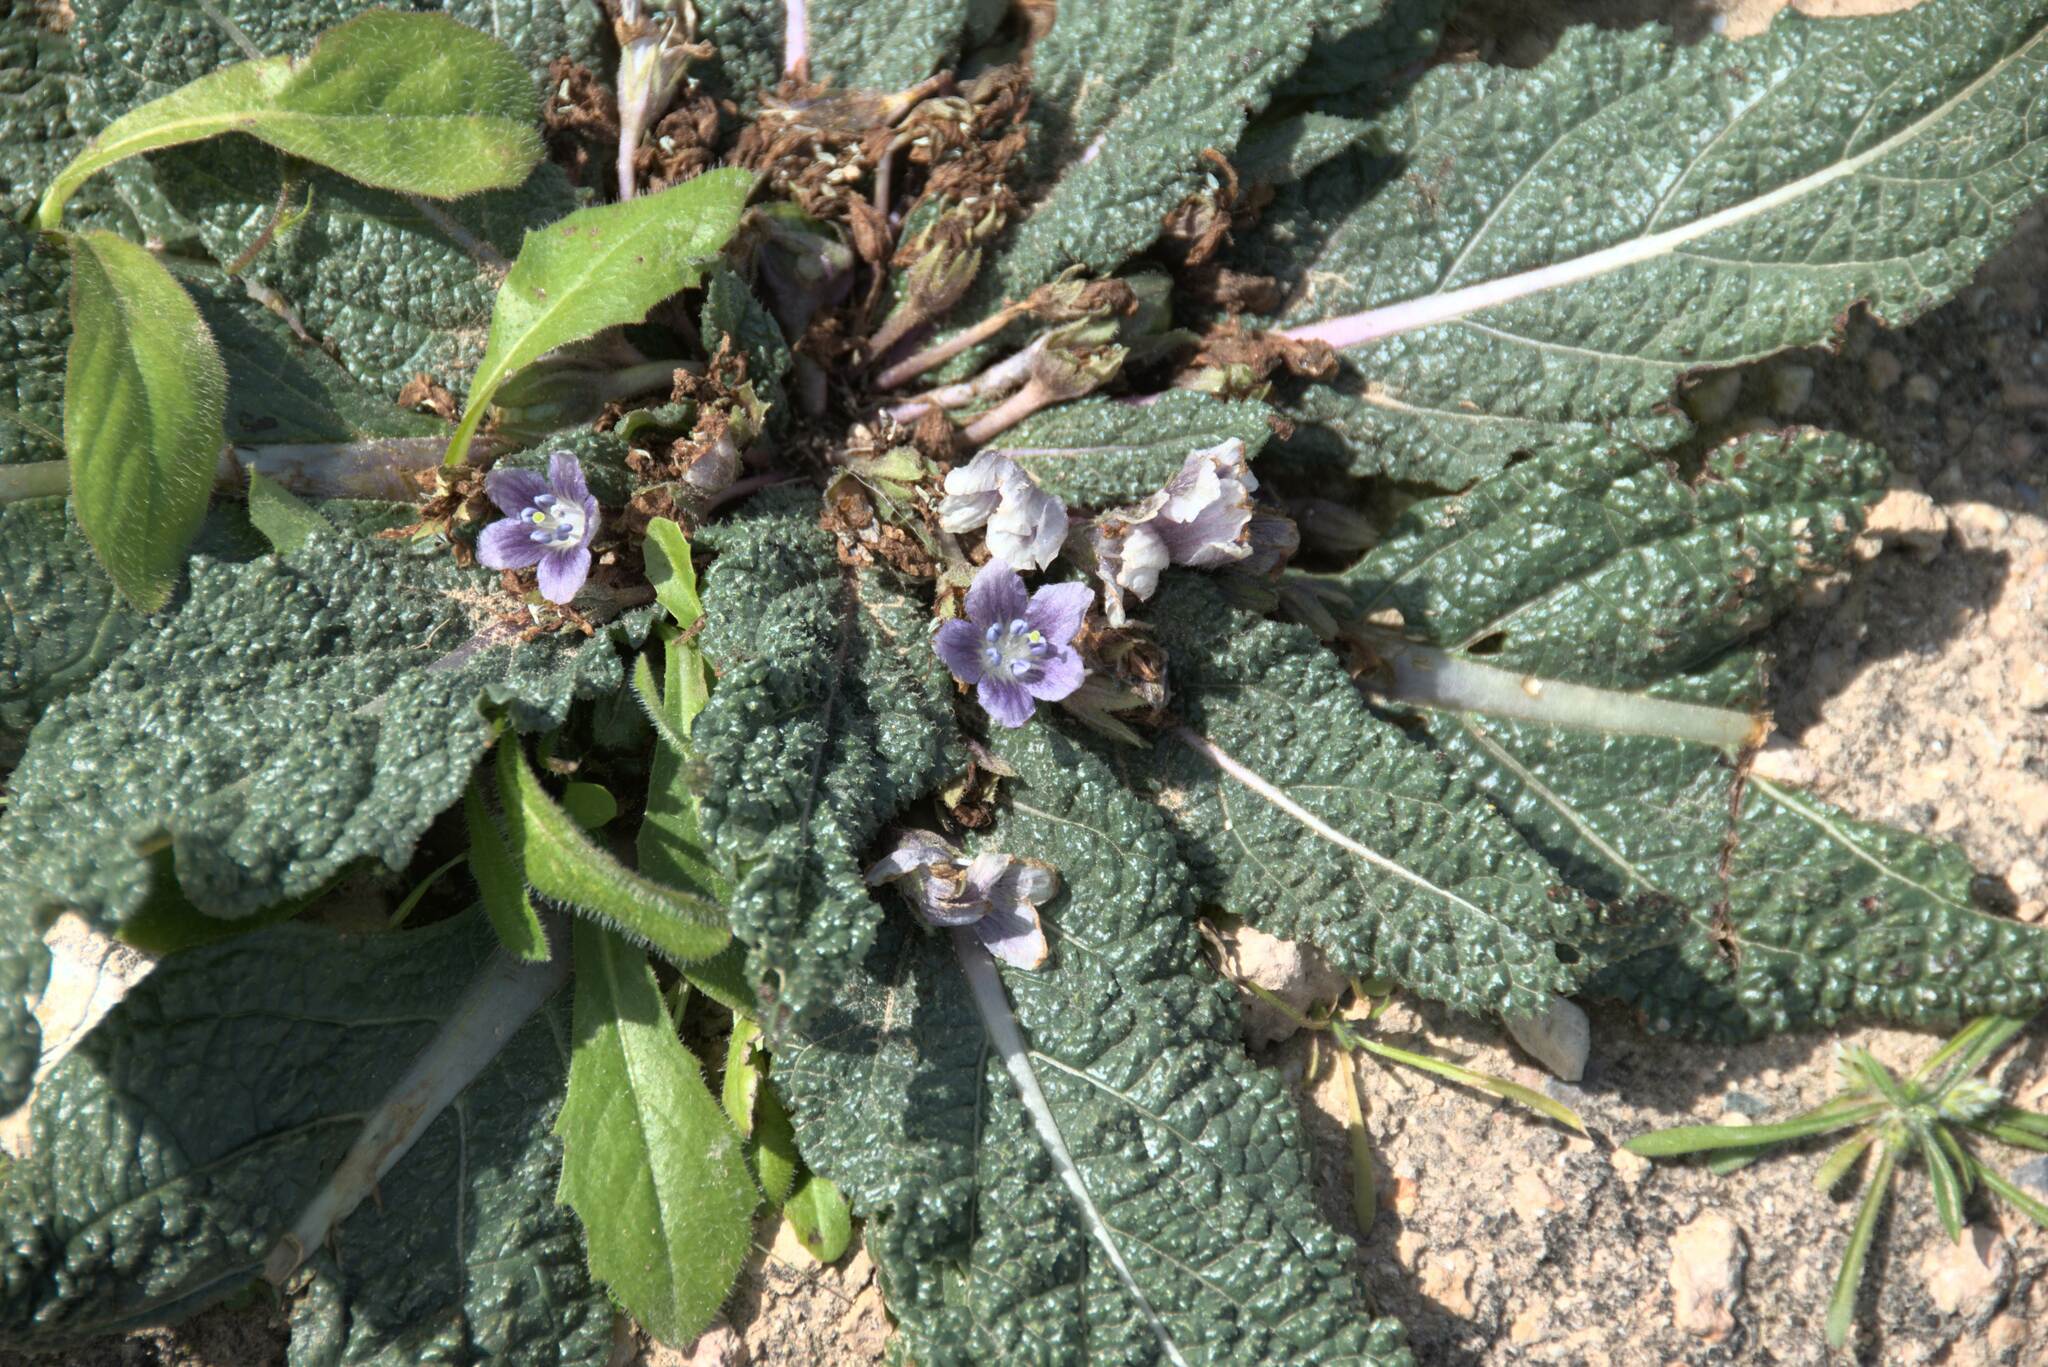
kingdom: Plantae
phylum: Tracheophyta
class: Magnoliopsida
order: Solanales
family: Solanaceae
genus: Mandragora
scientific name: Mandragora officinarum
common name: Mandrake
